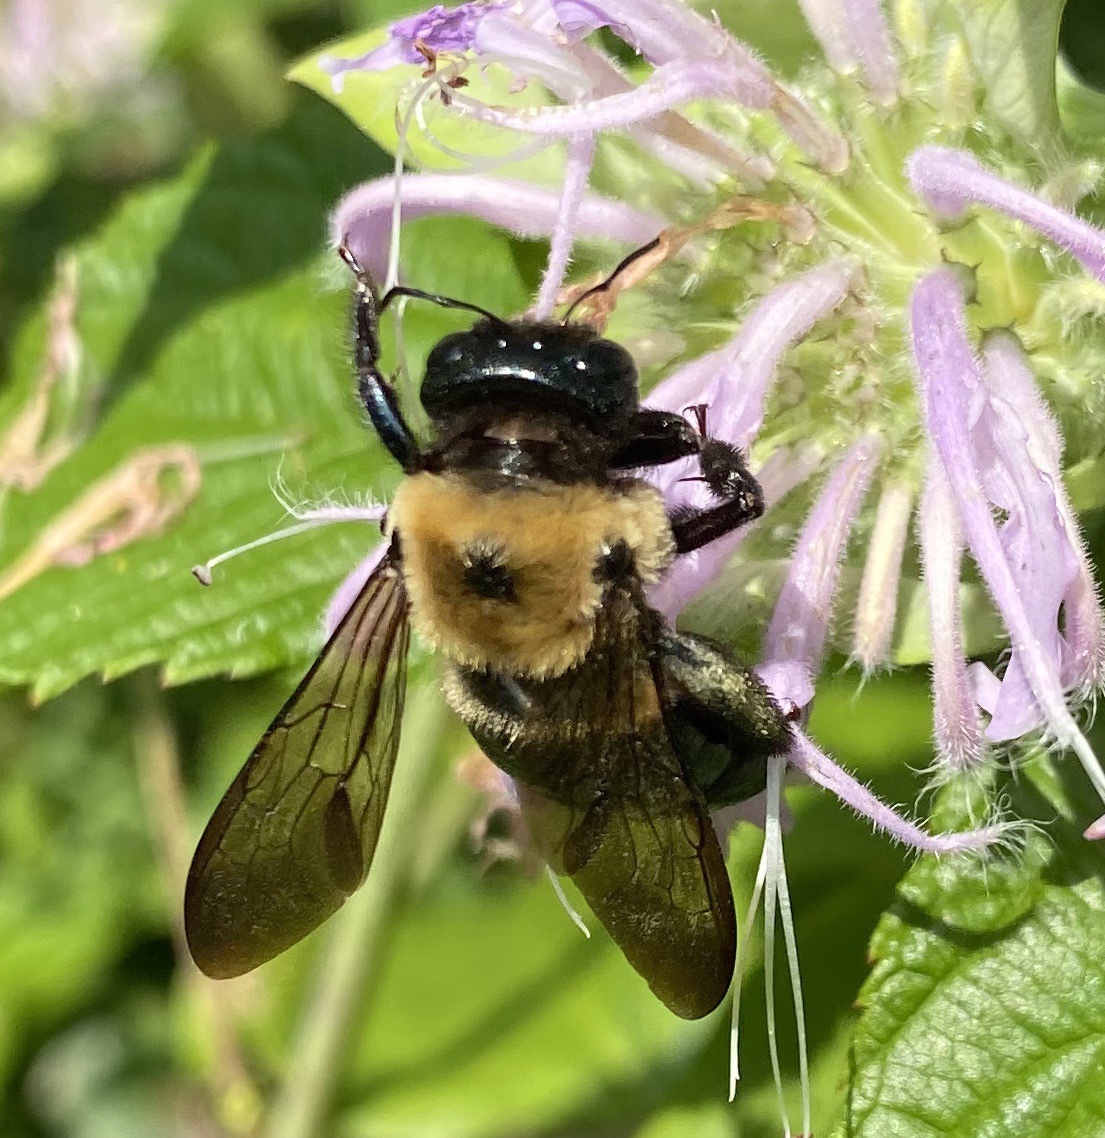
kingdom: Animalia
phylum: Arthropoda
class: Insecta
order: Hymenoptera
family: Apidae
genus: Xylocopa
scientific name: Xylocopa virginica
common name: Carpenter bee
